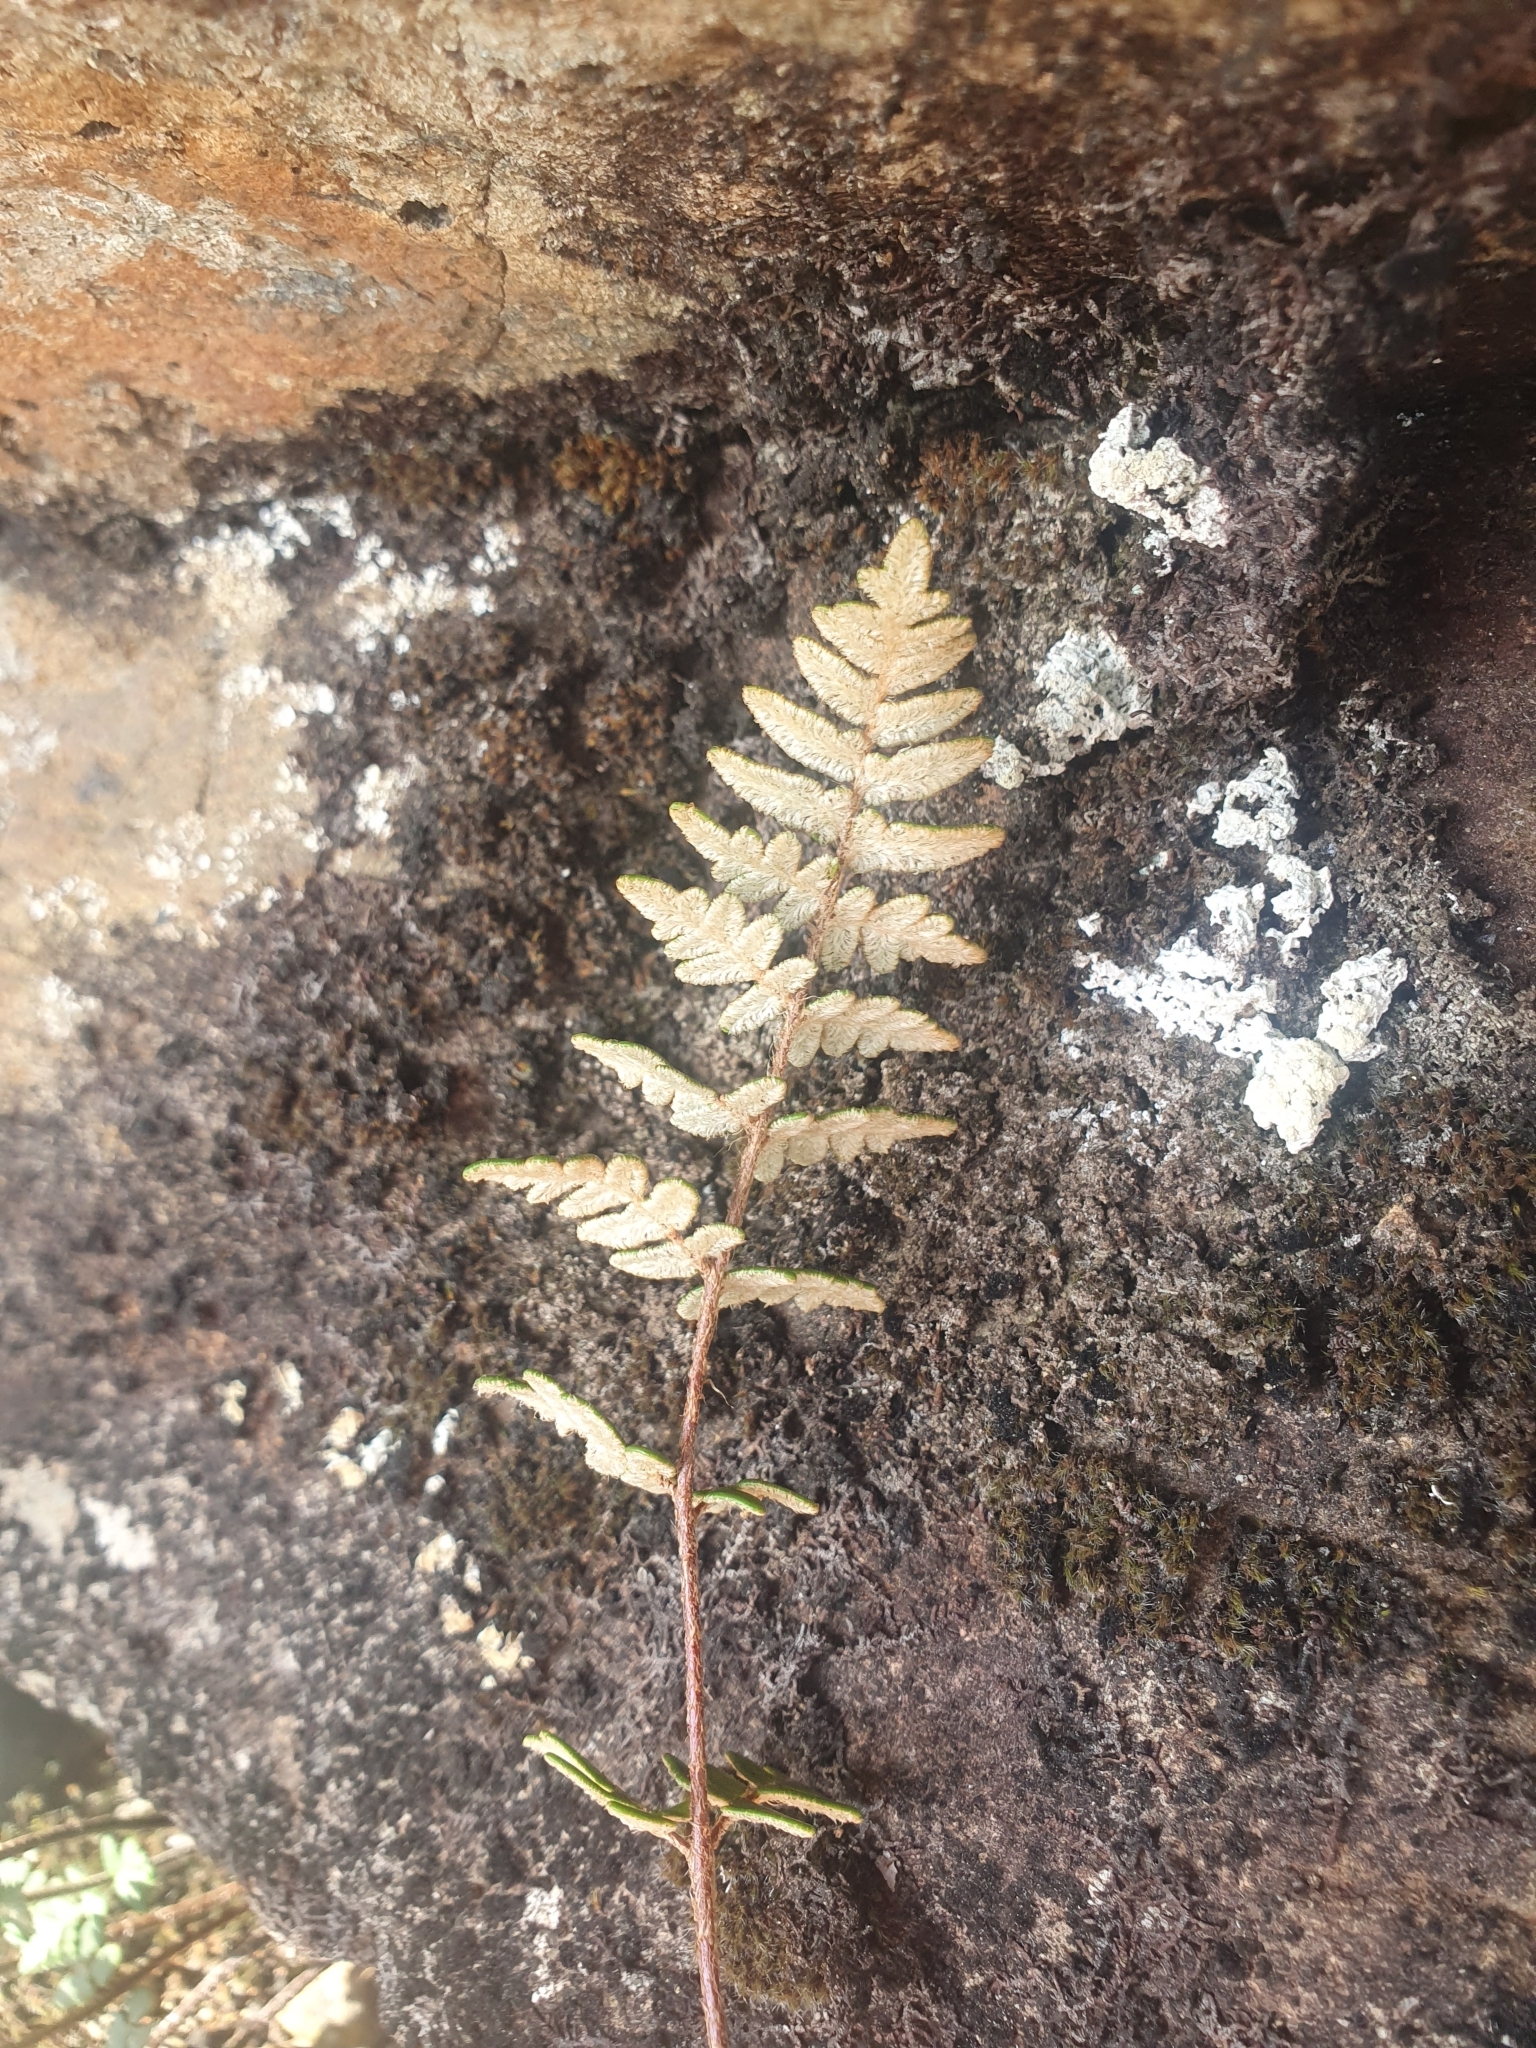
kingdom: Plantae
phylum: Tracheophyta
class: Polypodiopsida
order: Polypodiales
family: Pteridaceae
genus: Paragymnopteris
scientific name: Paragymnopteris marantae
